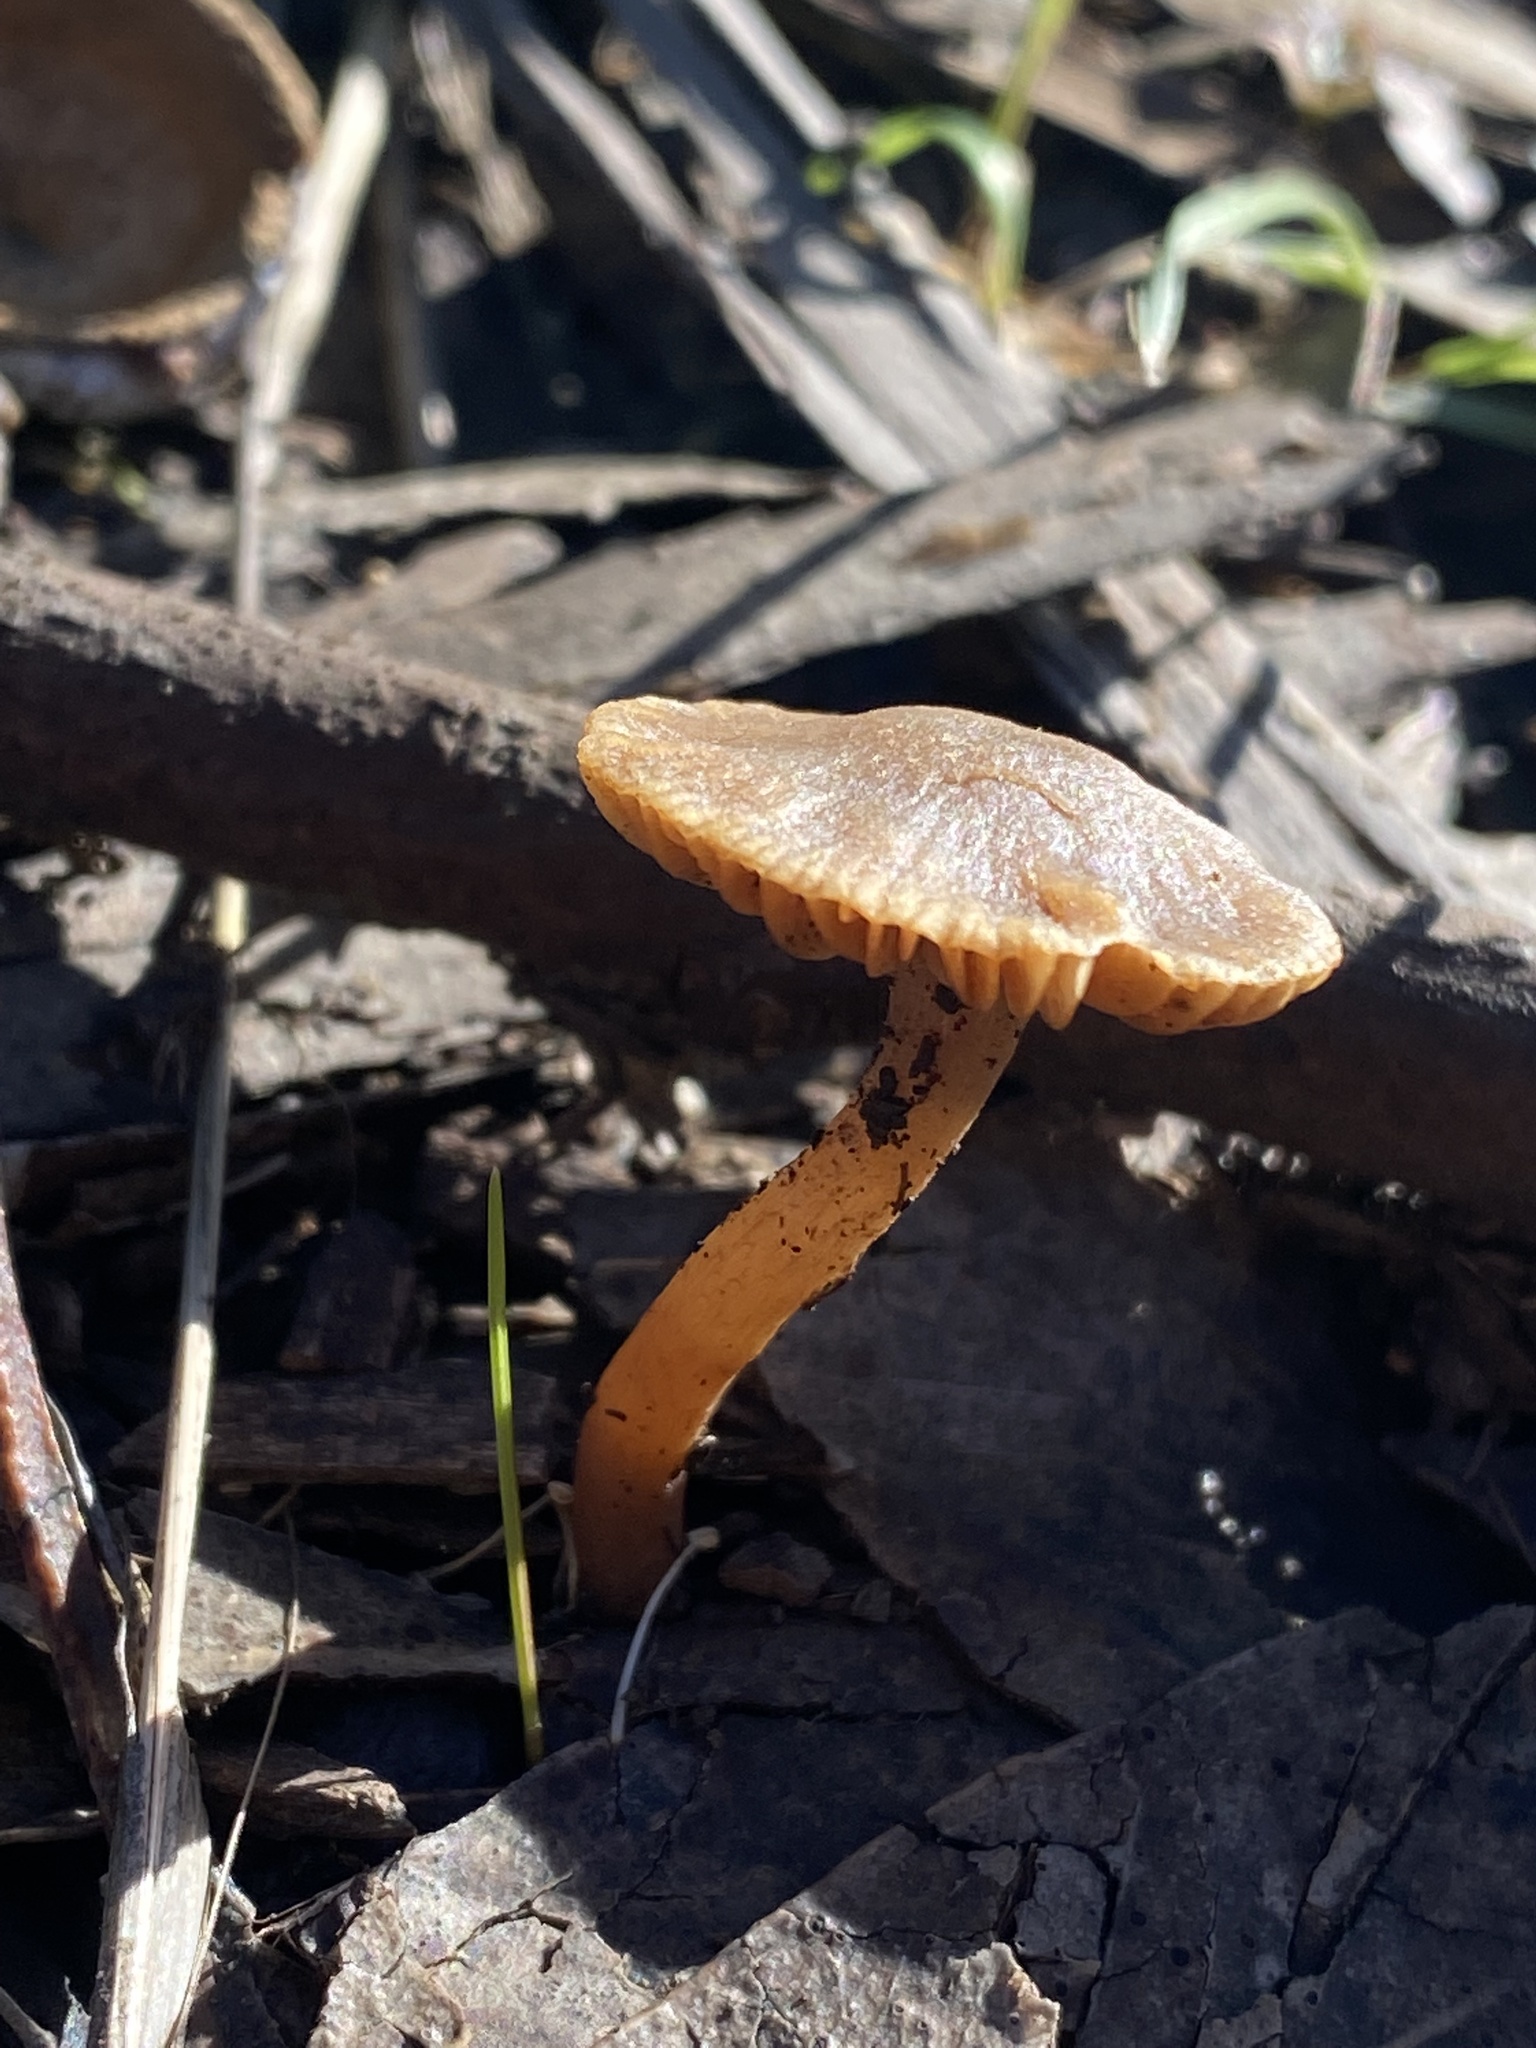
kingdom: Fungi
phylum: Basidiomycota
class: Agaricomycetes
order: Agaricales
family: Tubariaceae
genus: Tubaria
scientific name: Tubaria furfuracea
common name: Scurfy twiglet
